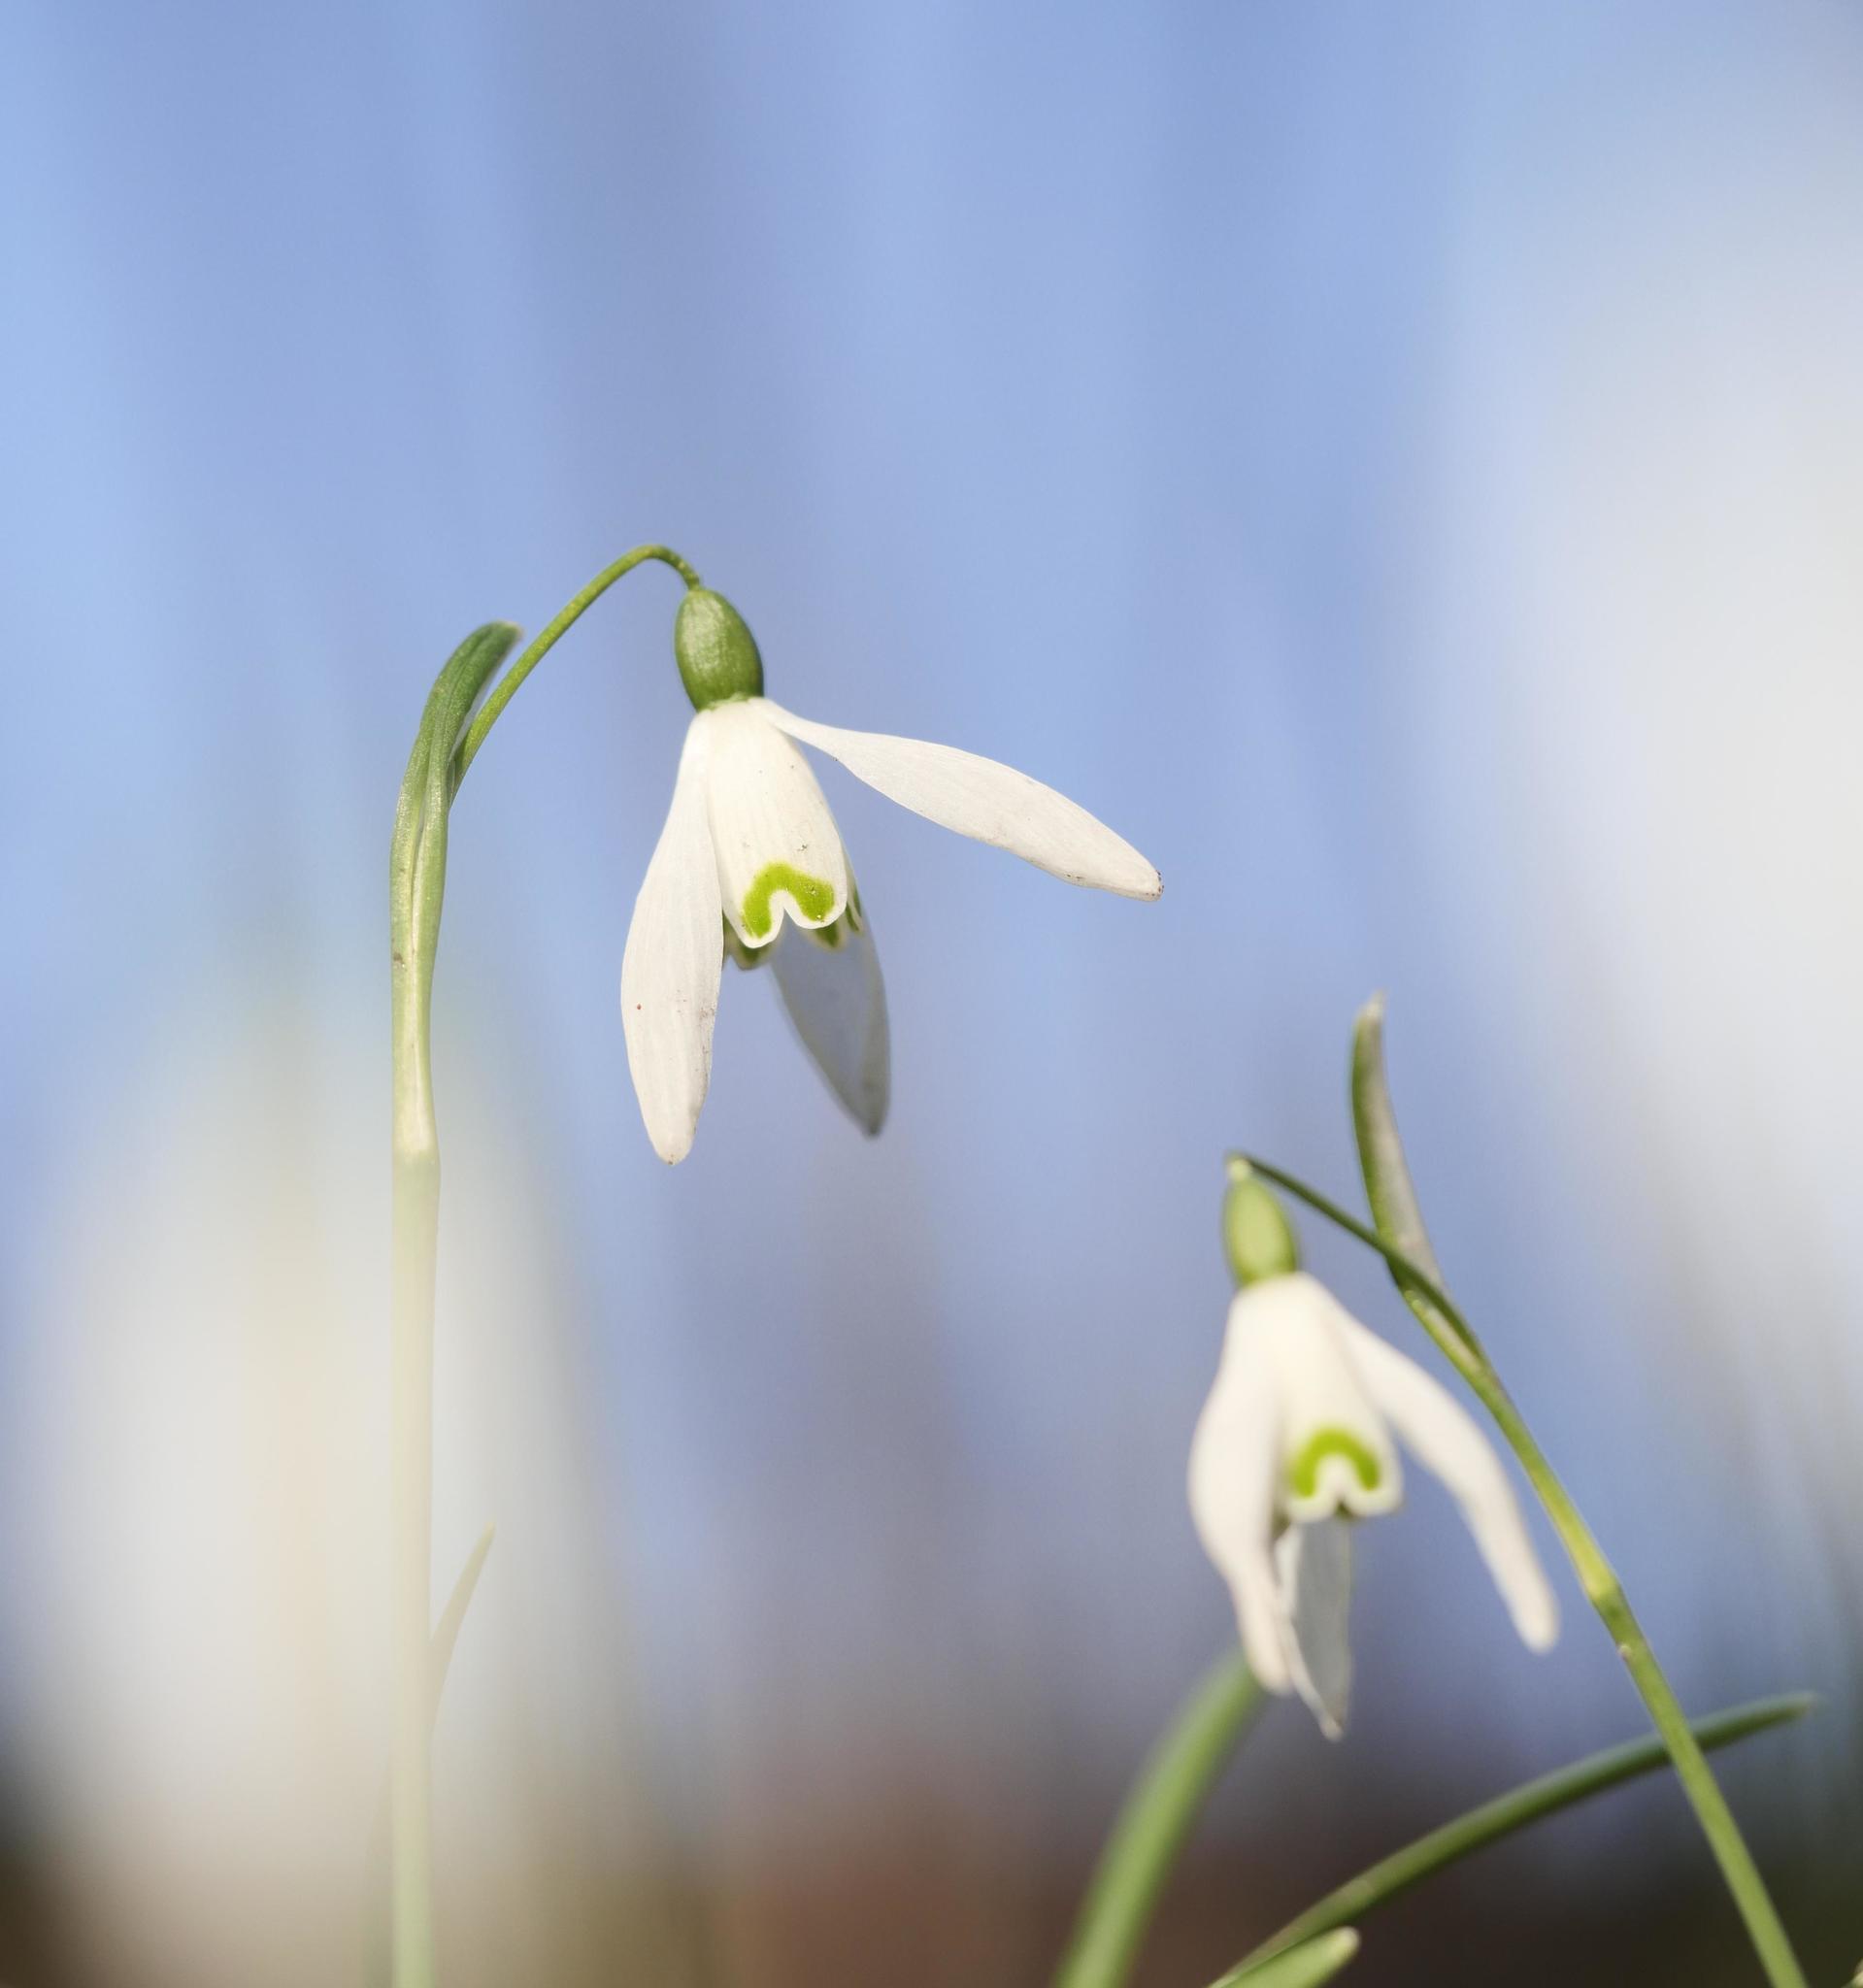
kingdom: Plantae
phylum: Tracheophyta
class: Liliopsida
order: Asparagales
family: Amaryllidaceae
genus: Galanthus
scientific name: Galanthus nivalis
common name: Snowdrop
